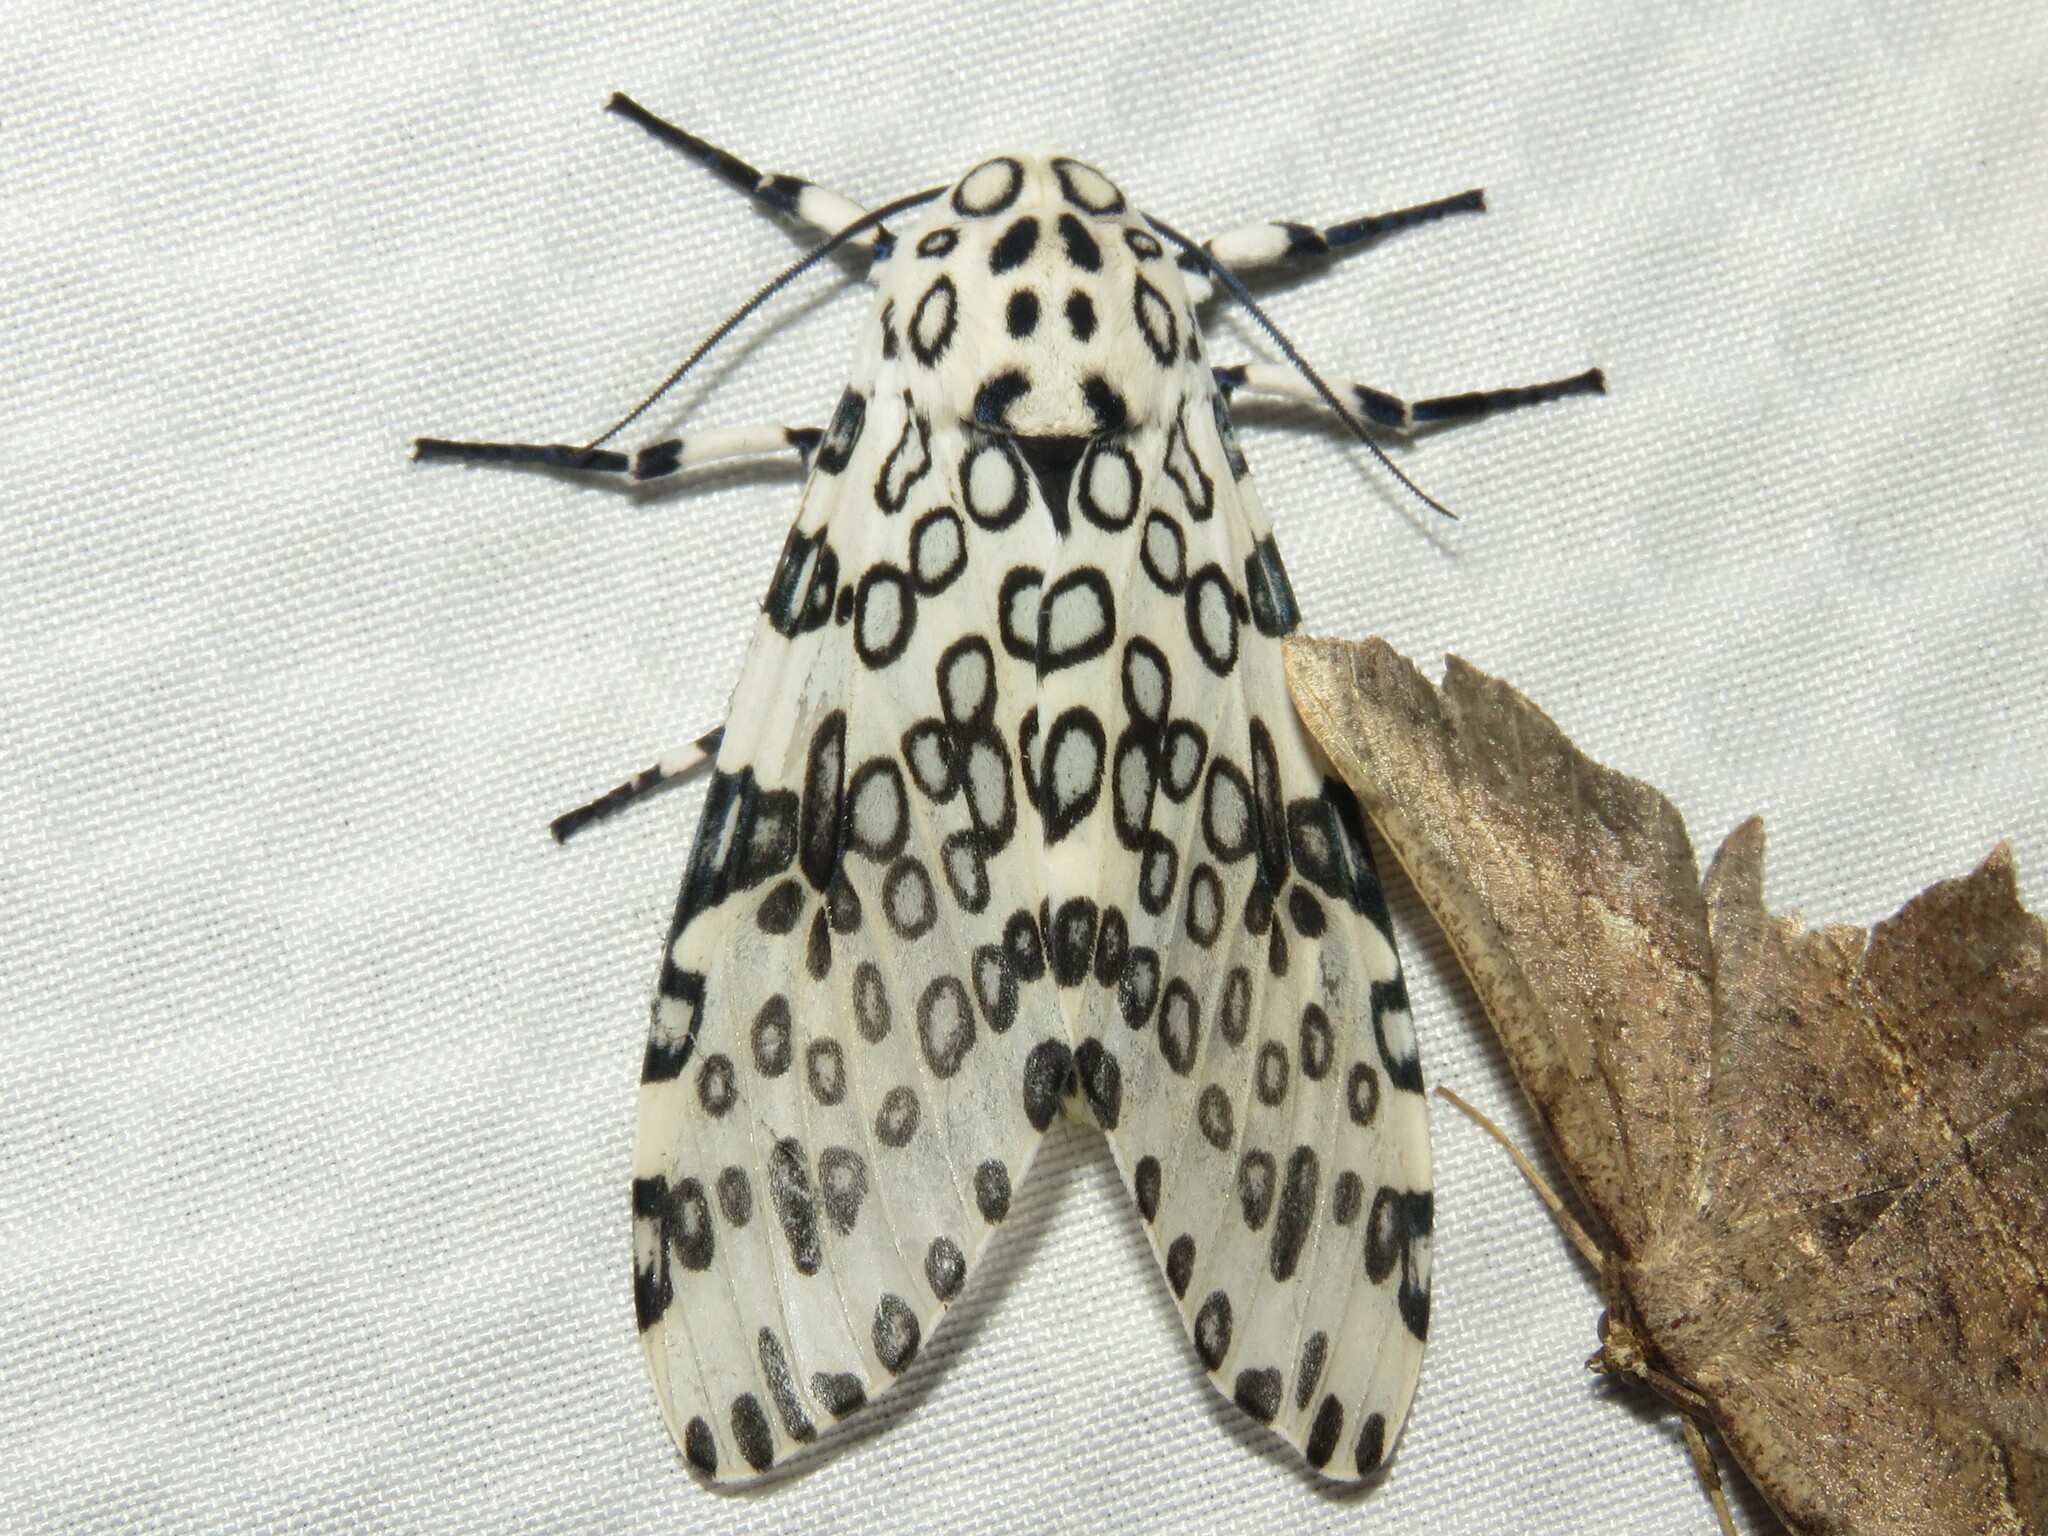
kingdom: Animalia
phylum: Arthropoda
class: Insecta
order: Lepidoptera
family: Erebidae
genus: Hypercompe
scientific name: Hypercompe scribonia
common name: Giant leopard moth
